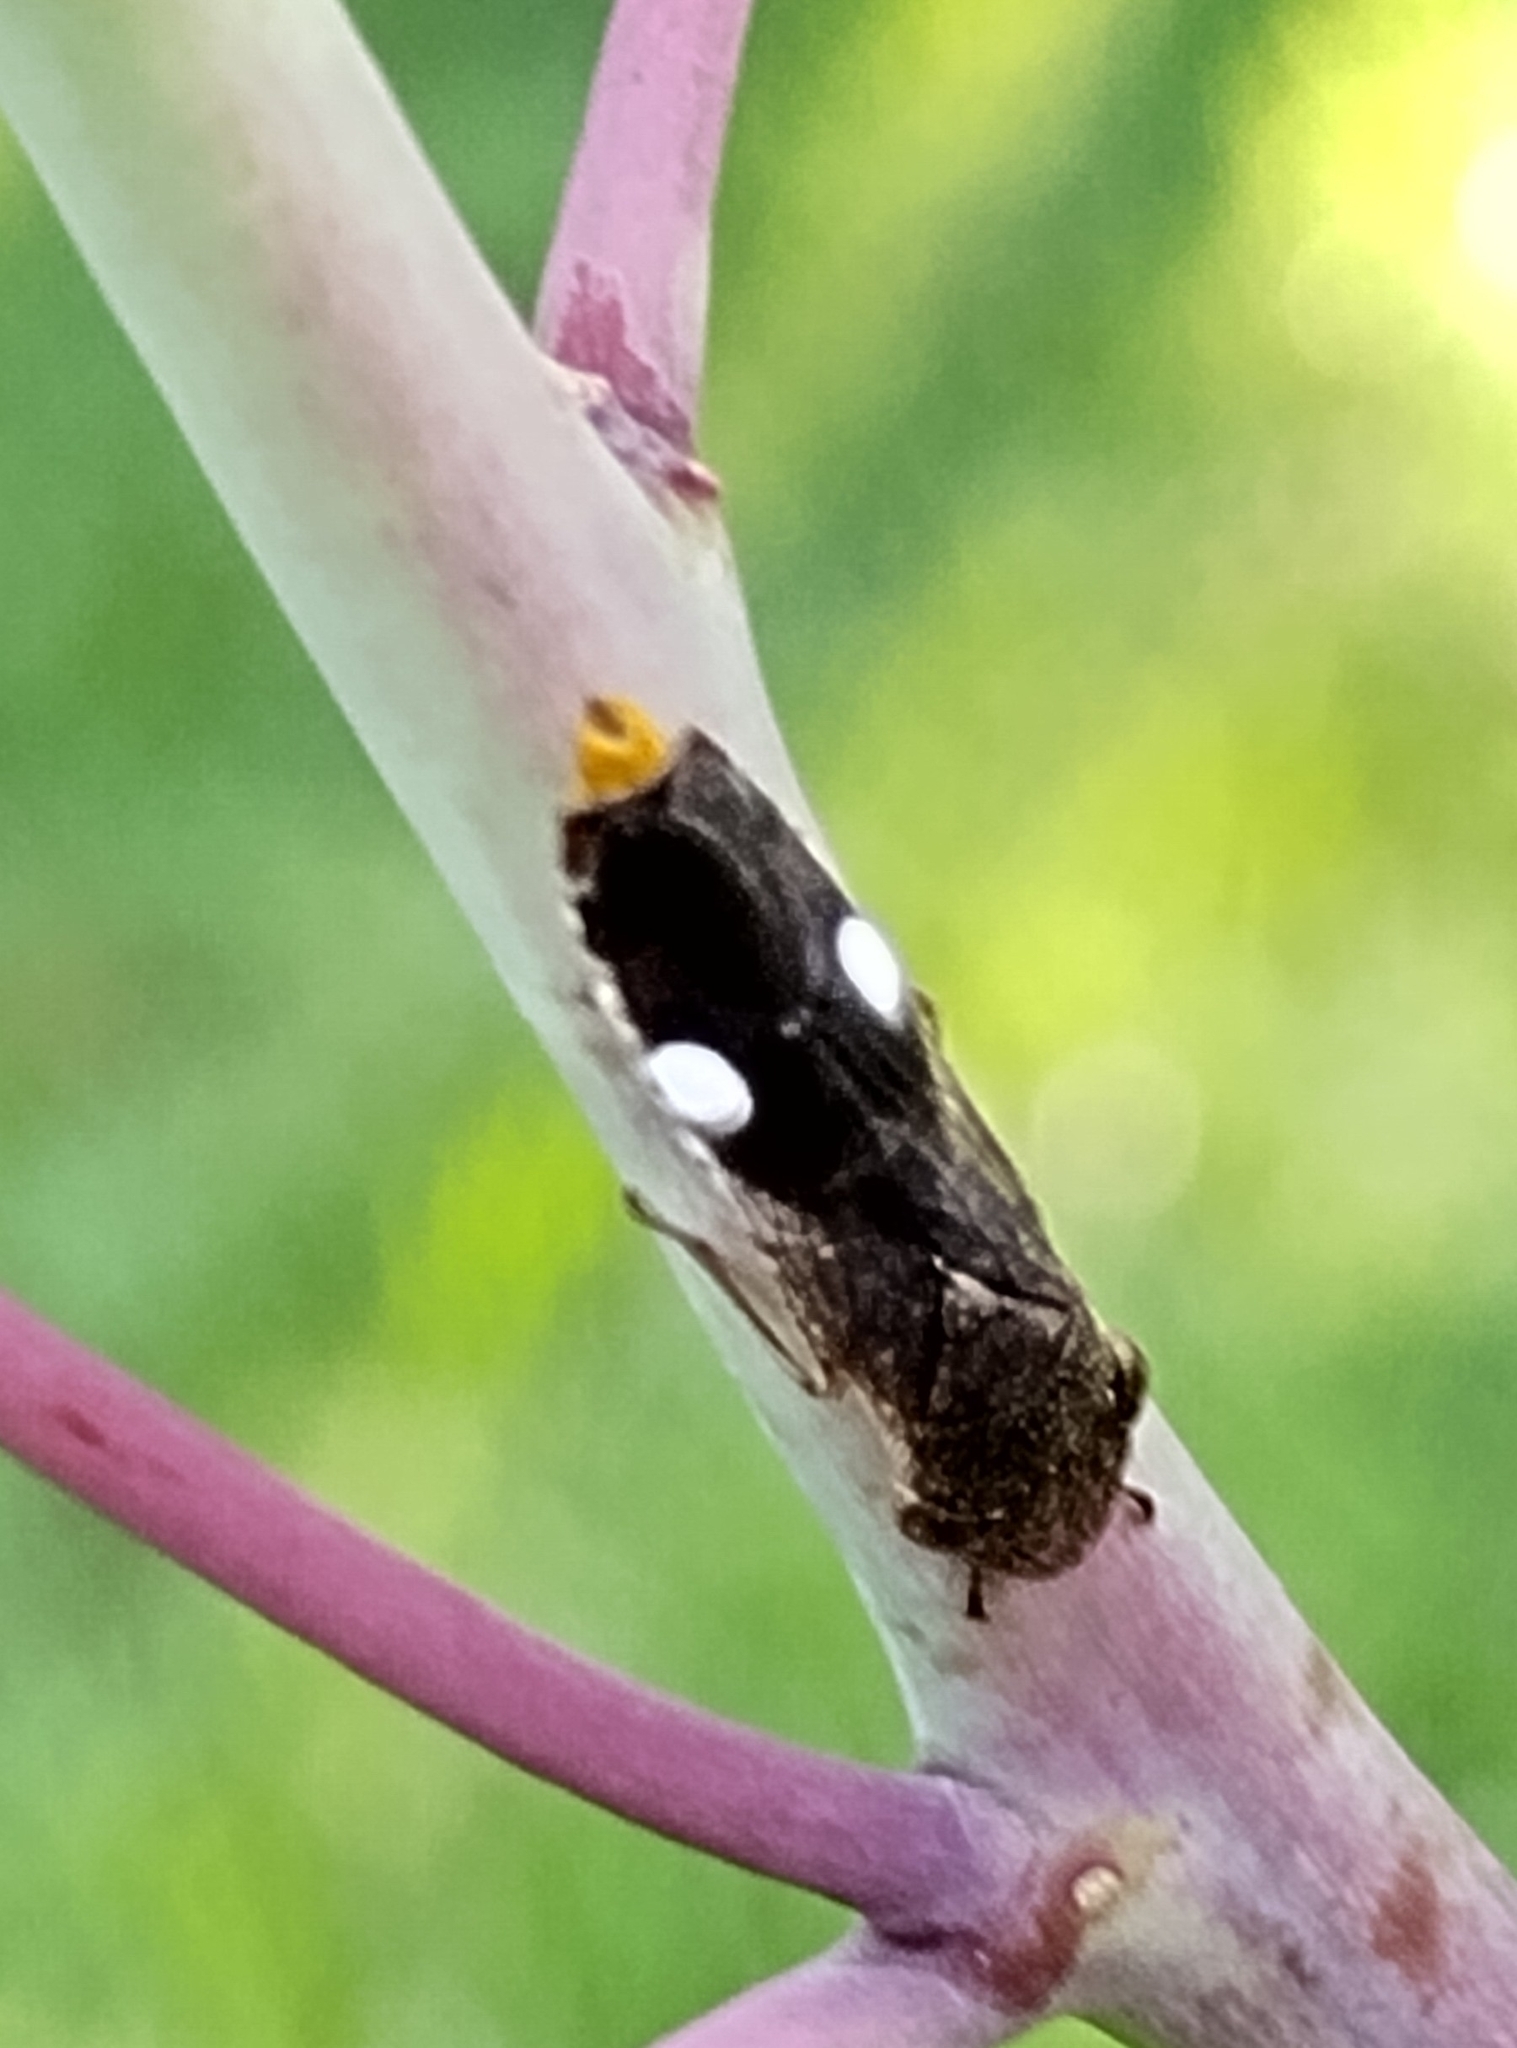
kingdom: Animalia
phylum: Arthropoda
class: Insecta
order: Hemiptera
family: Cicadellidae
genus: Homalodisca
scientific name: Homalodisca vitripennis
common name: Glassy-winged sharpshooter
